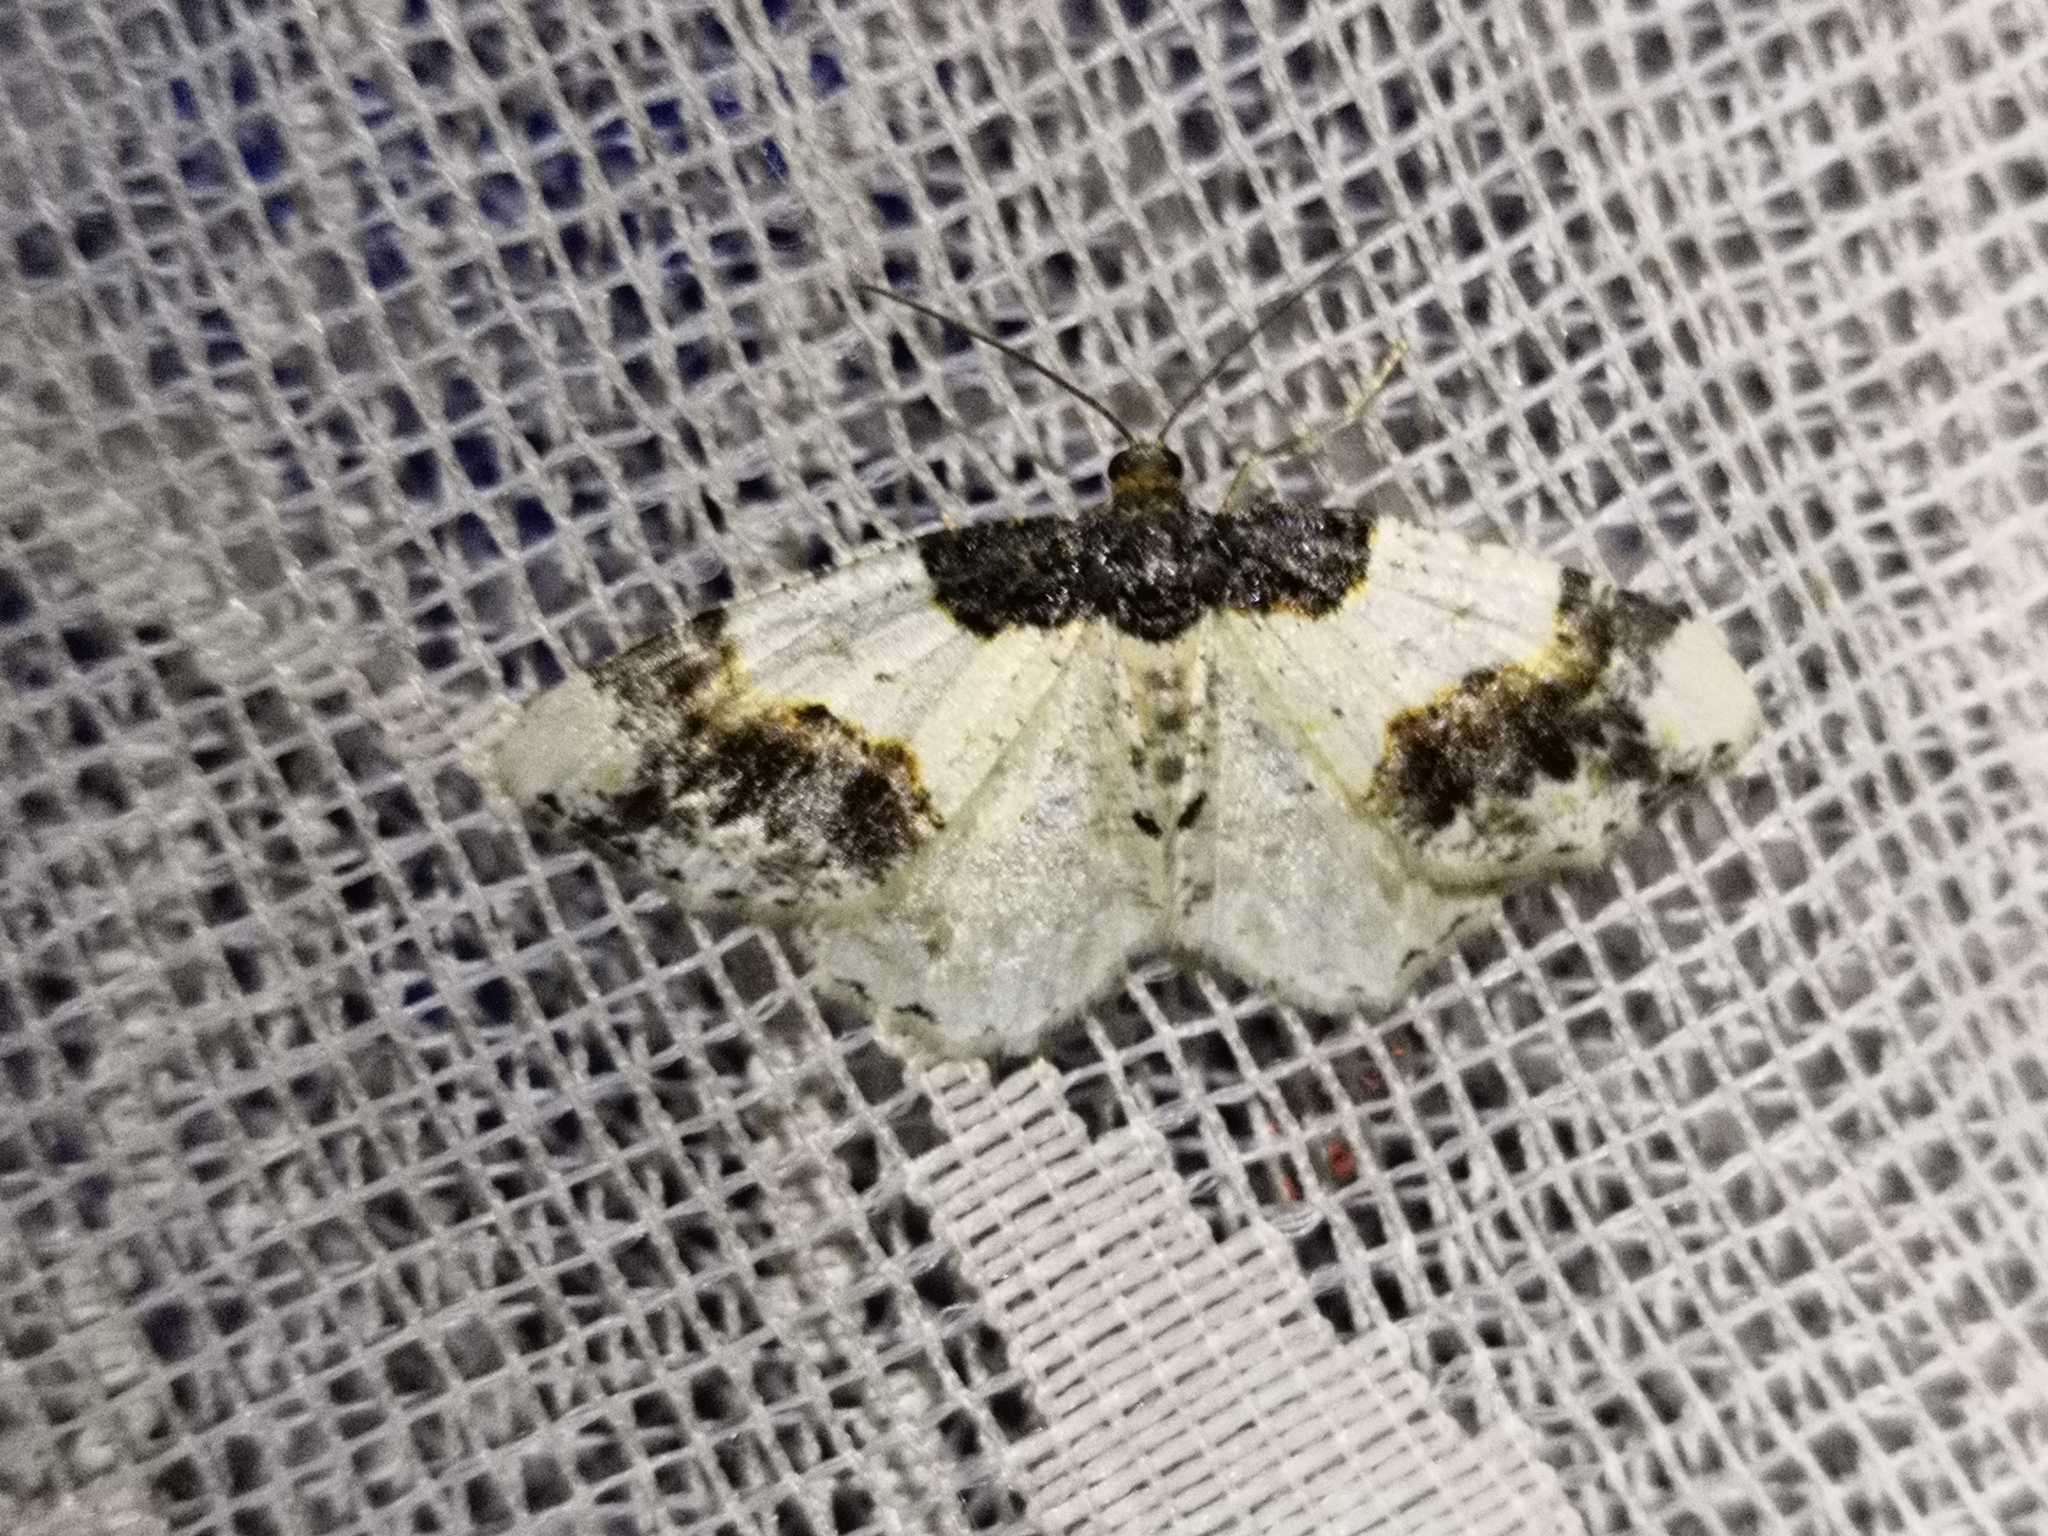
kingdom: Animalia
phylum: Arthropoda
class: Insecta
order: Lepidoptera
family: Geometridae
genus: Ligdia
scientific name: Ligdia adustata
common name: Scorched carpet
